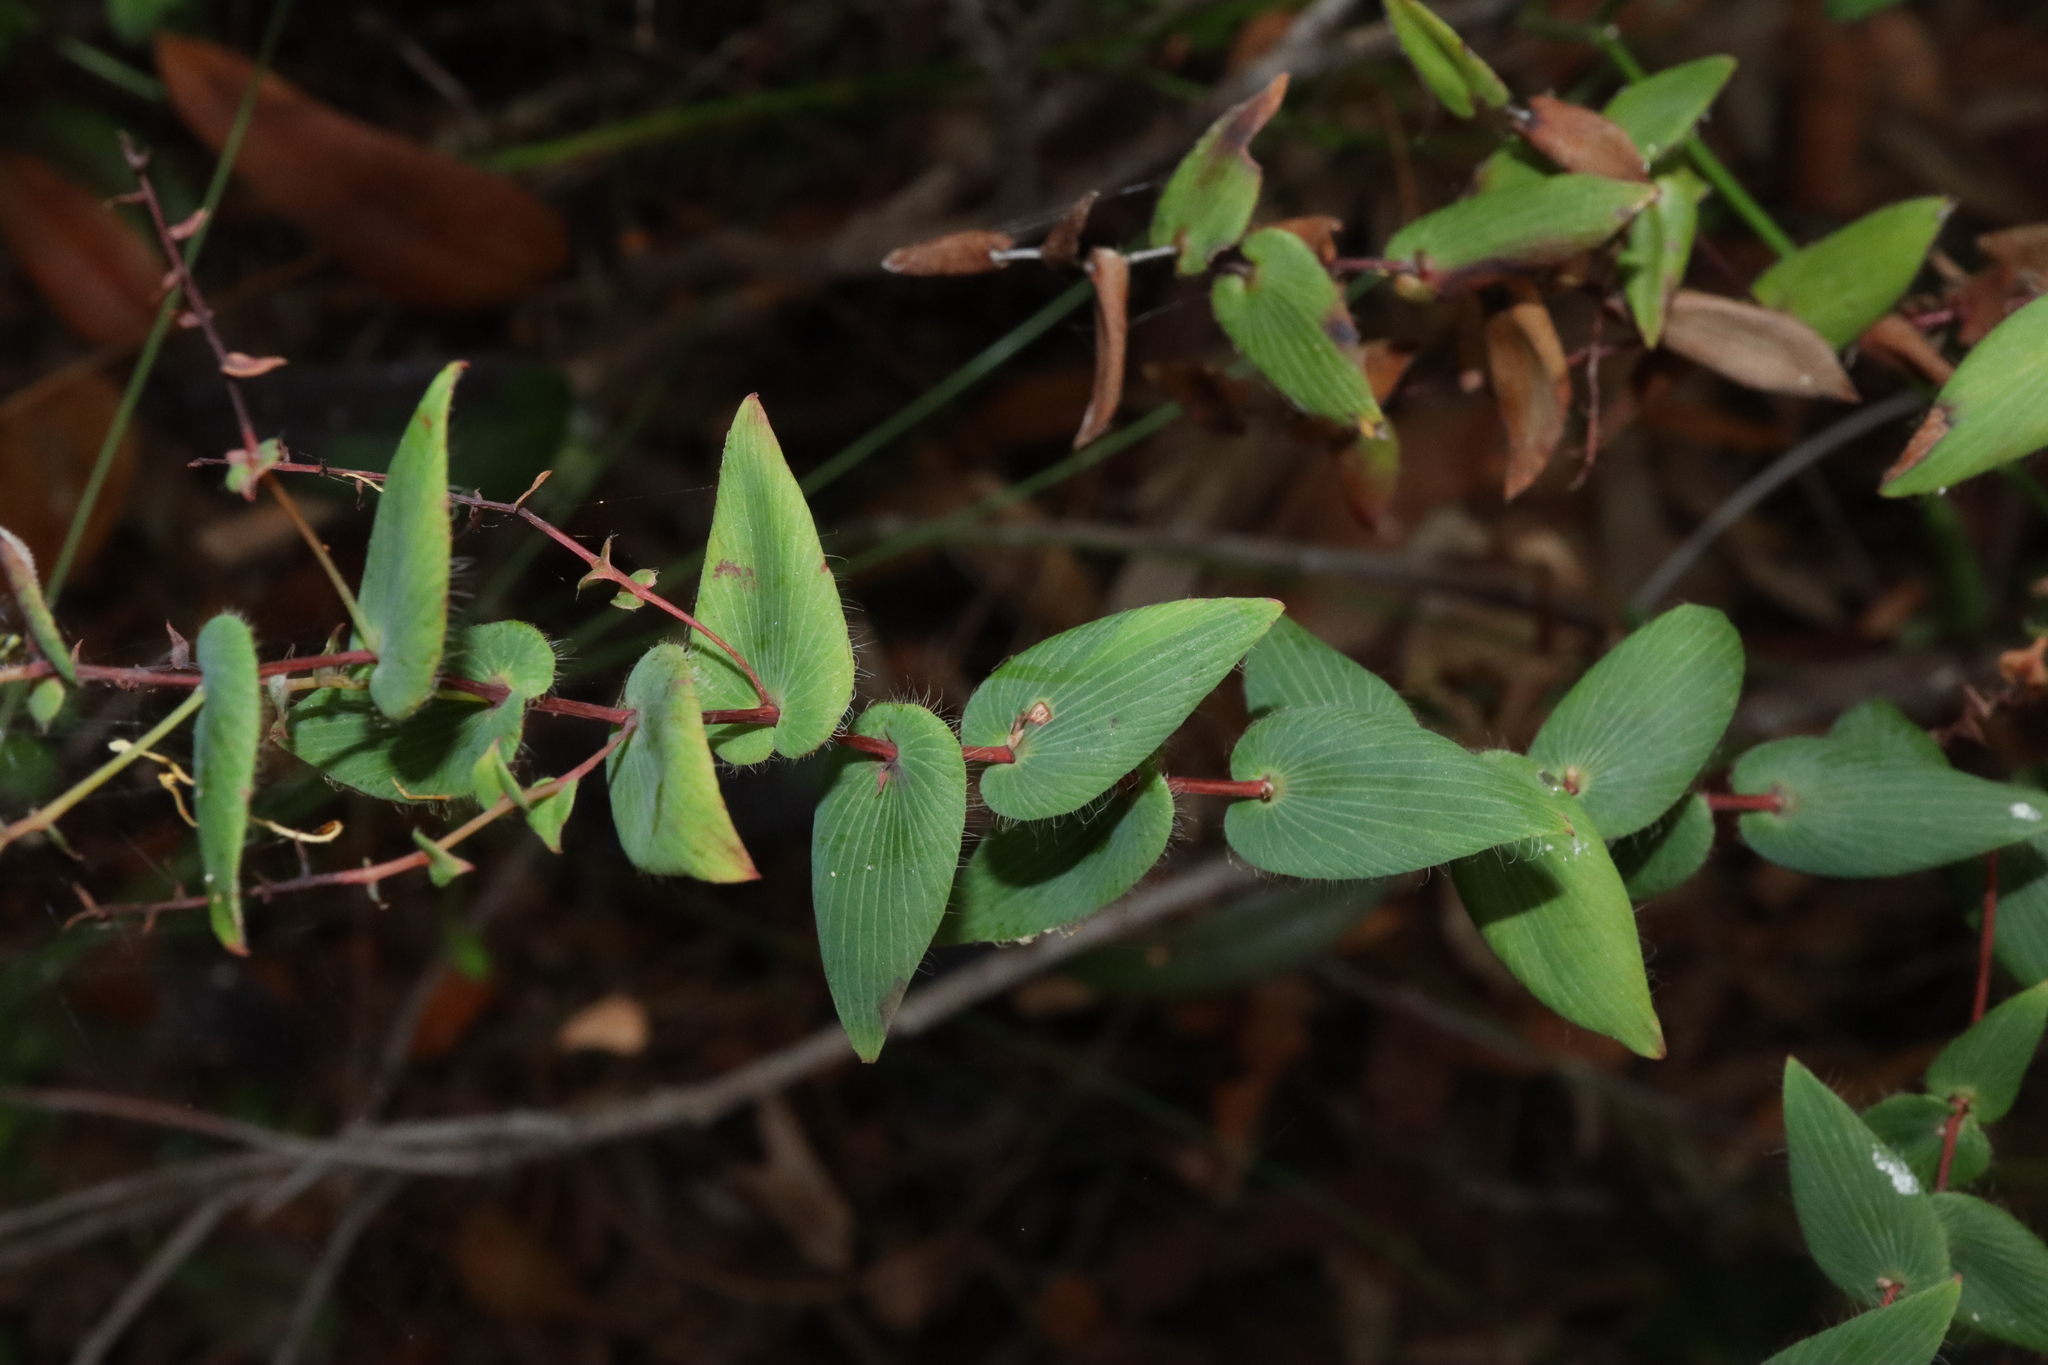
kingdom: Plantae
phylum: Tracheophyta
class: Magnoliopsida
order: Ericales
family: Ericaceae
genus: Leucopogon
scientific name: Leucopogon amplexicaulis
